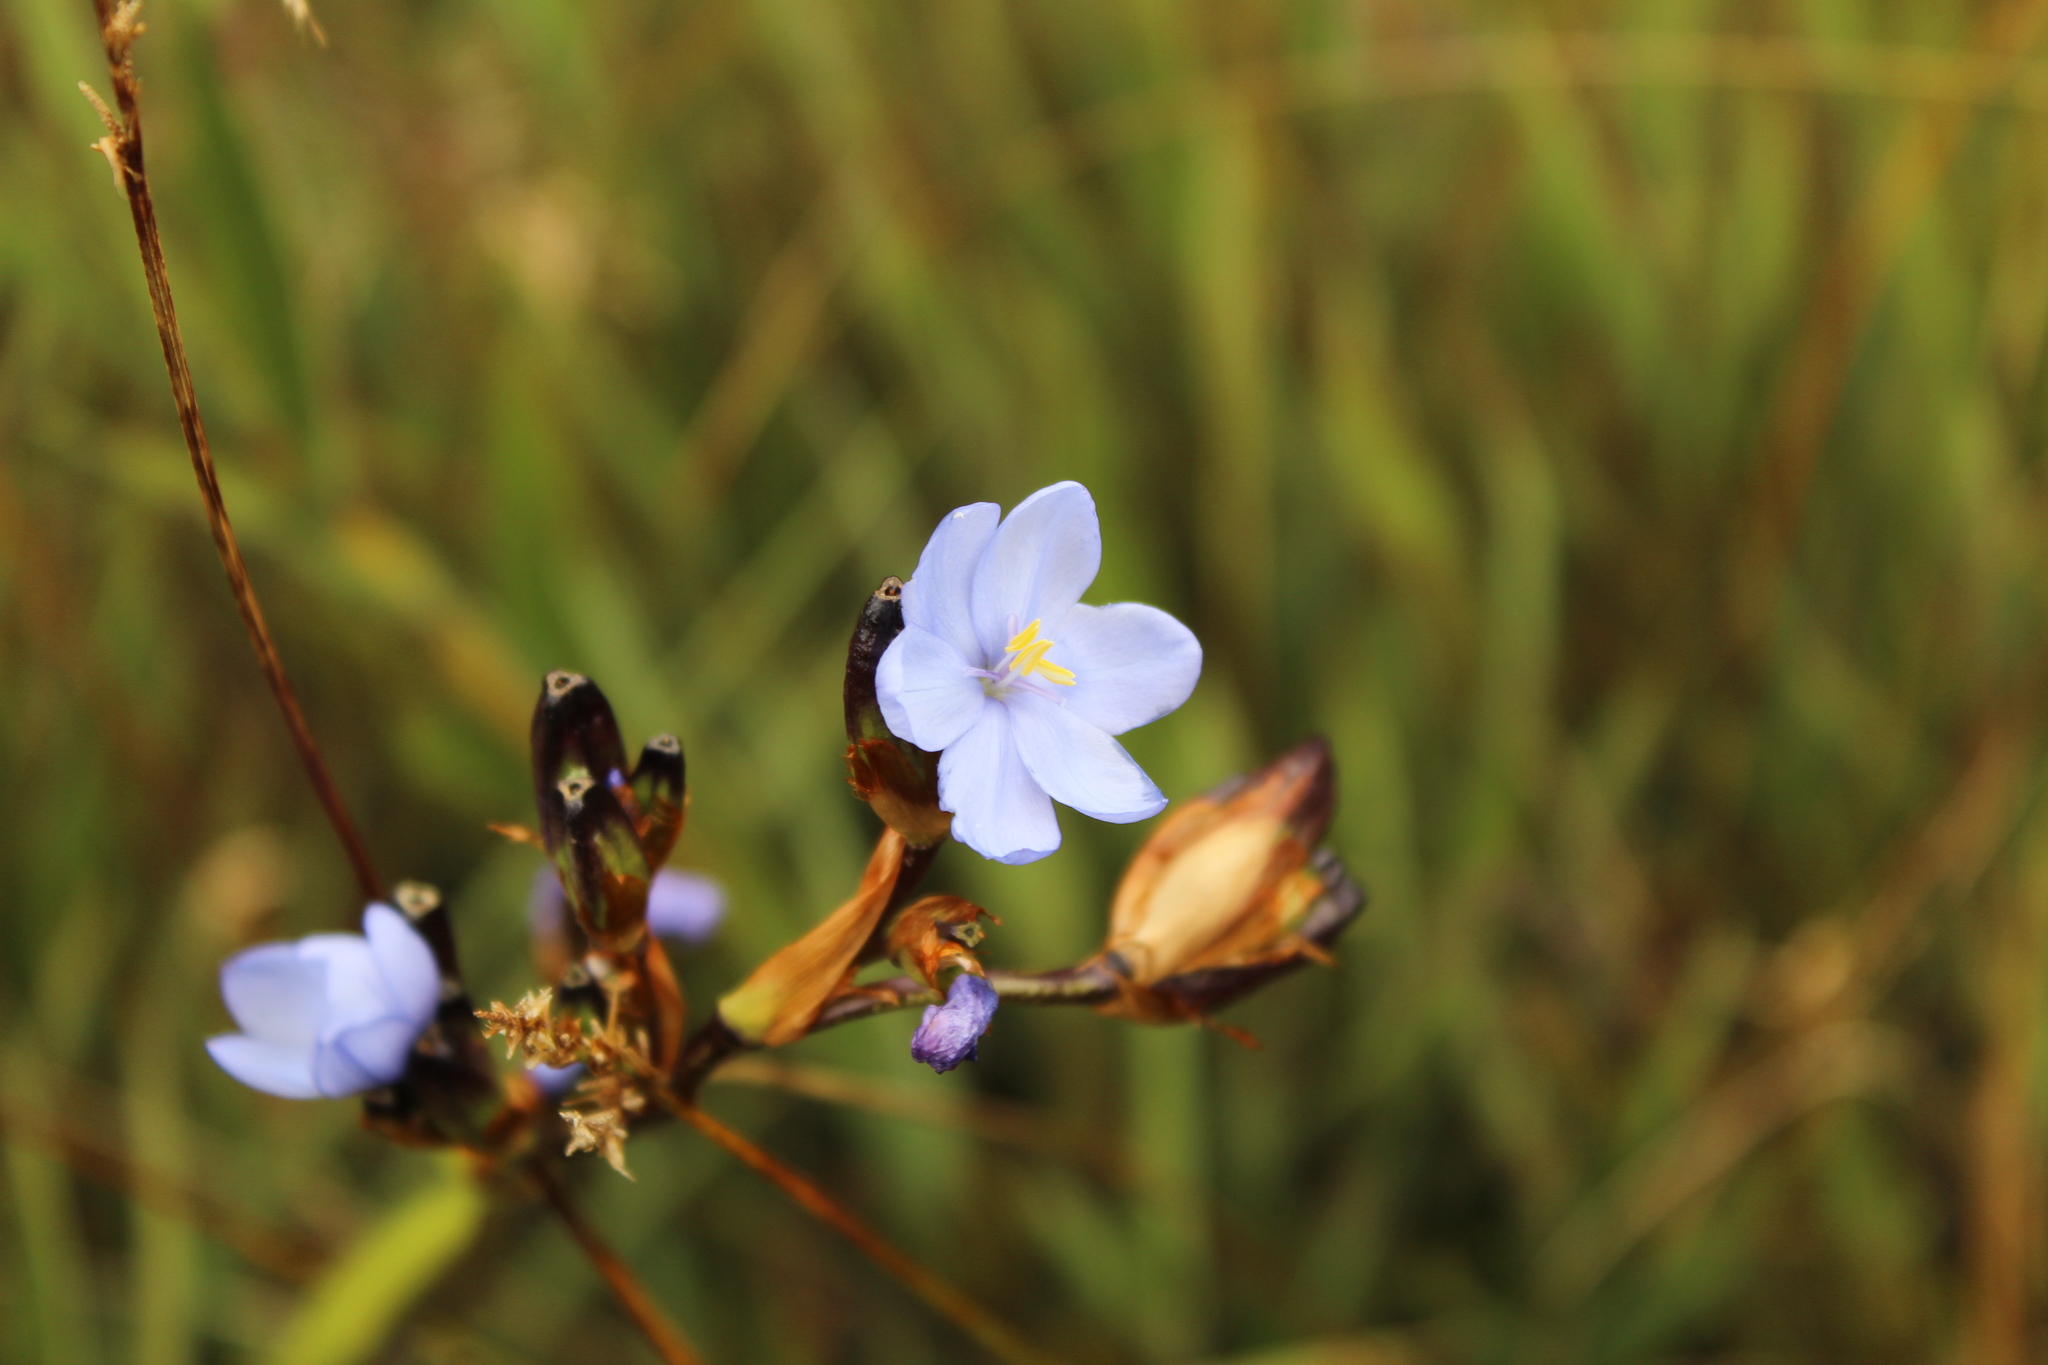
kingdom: Plantae
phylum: Tracheophyta
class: Liliopsida
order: Asparagales
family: Iridaceae
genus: Orthrosanthus
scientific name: Orthrosanthus chimboracensis
